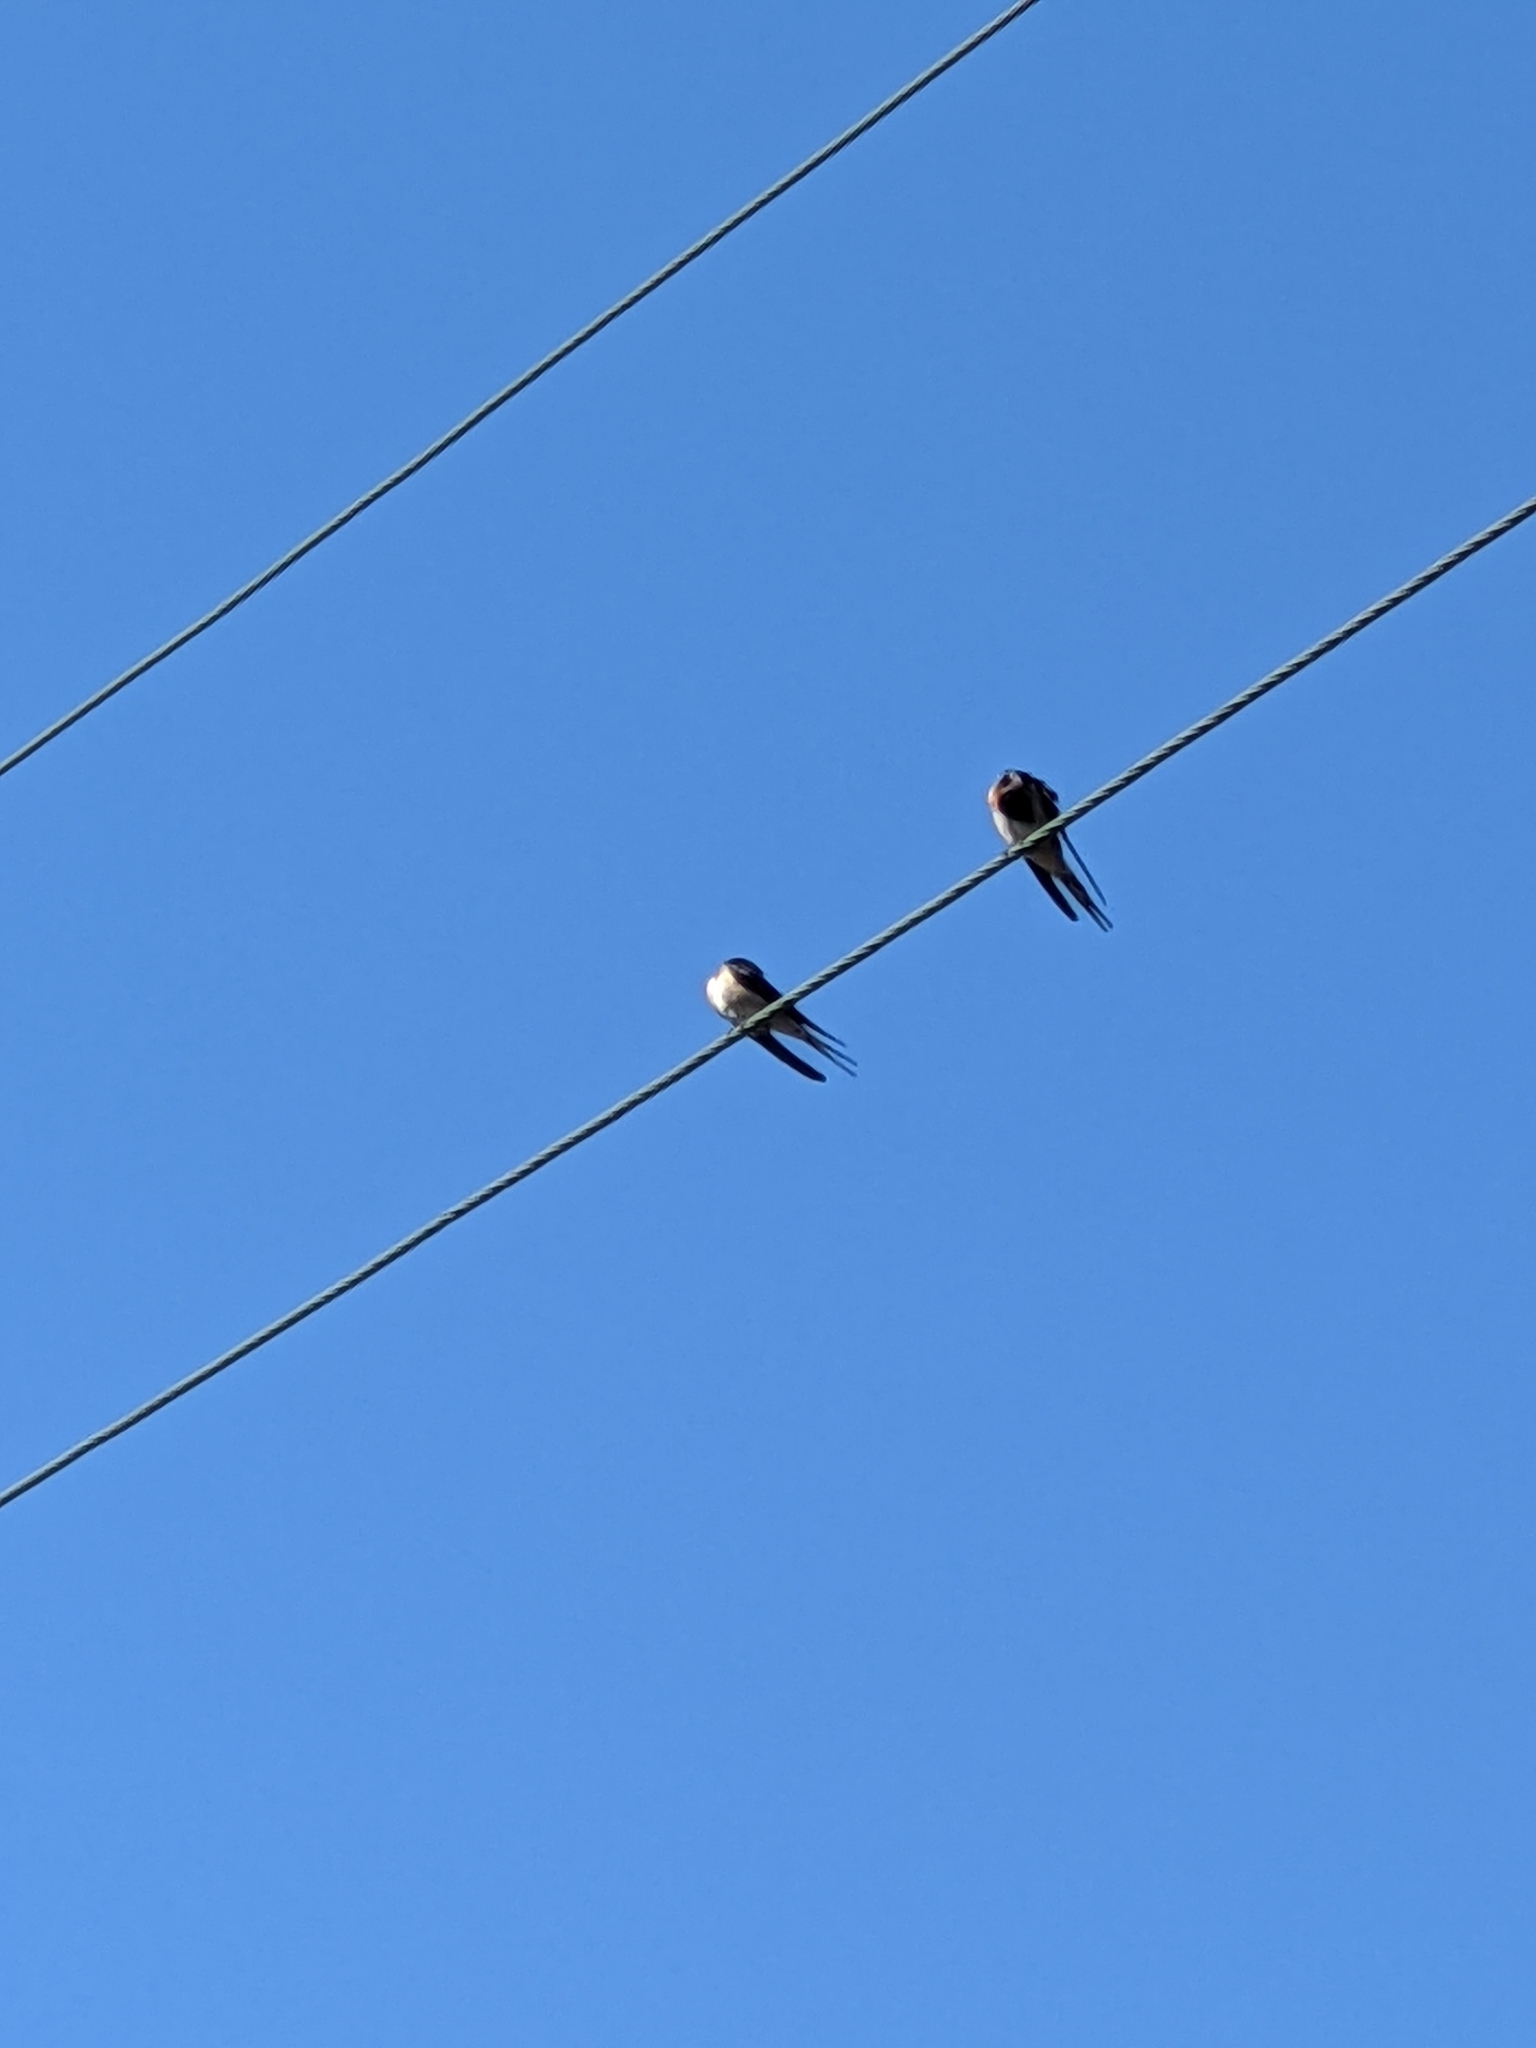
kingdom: Animalia
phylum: Chordata
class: Aves
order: Passeriformes
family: Hirundinidae
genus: Hirundo
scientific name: Hirundo neoxena
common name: Welcome swallow
